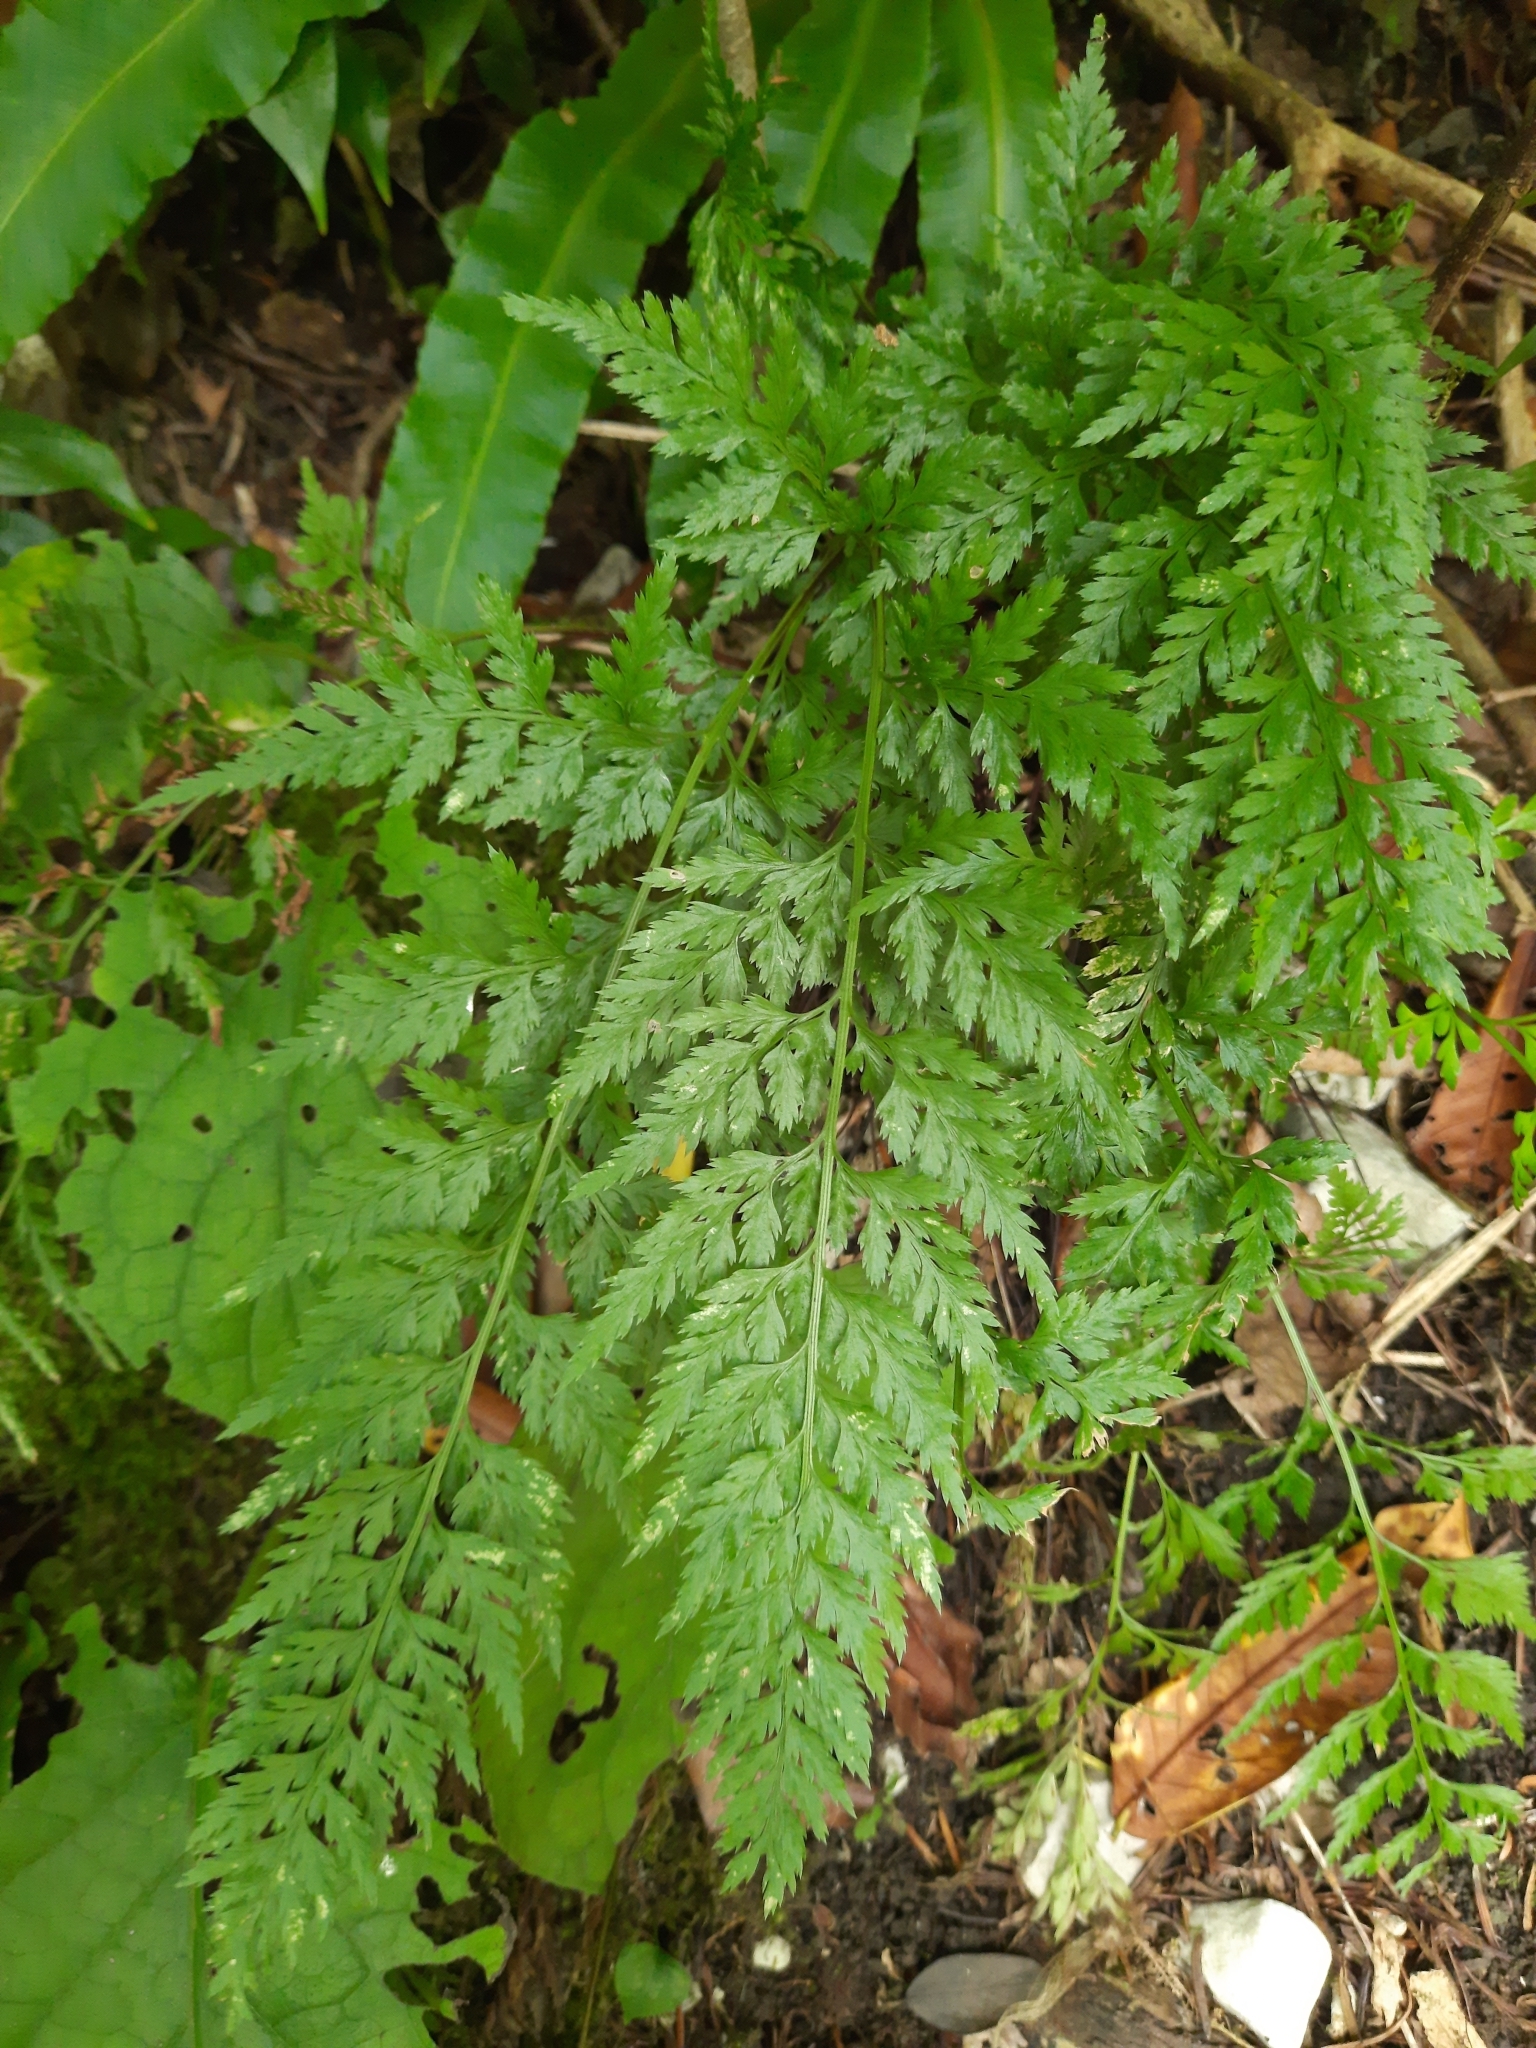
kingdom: Plantae
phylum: Tracheophyta
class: Polypodiopsida
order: Polypodiales
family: Aspleniaceae
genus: Asplenium
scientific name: Asplenium adiantum-nigrum
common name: Black spleenwort
